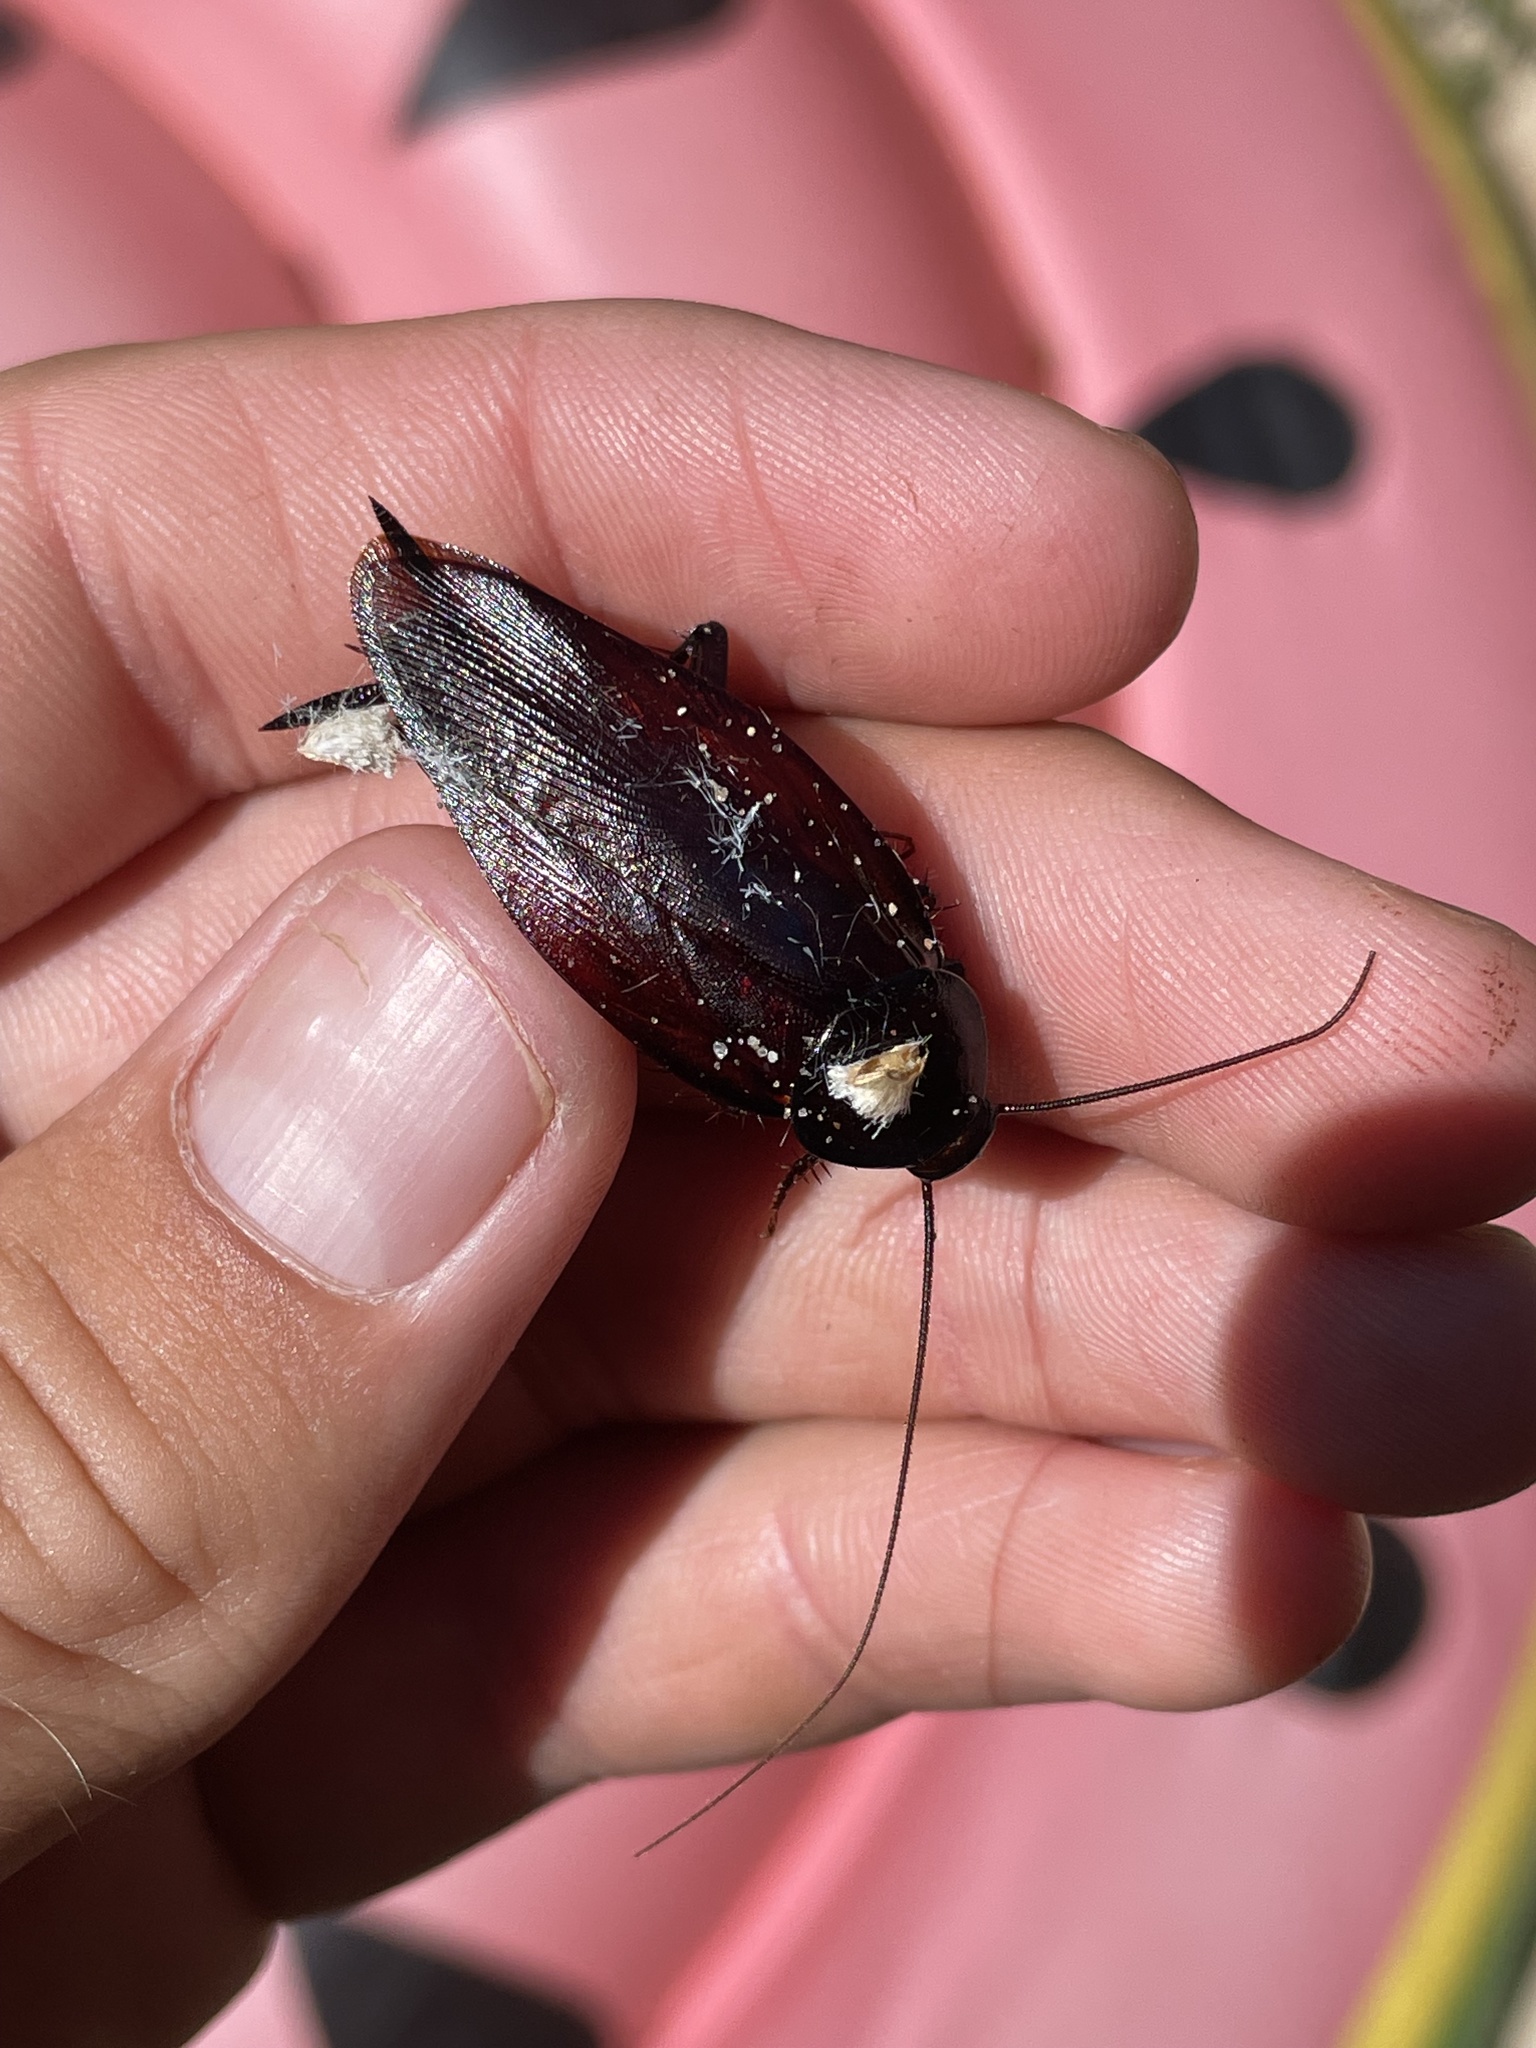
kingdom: Animalia
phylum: Arthropoda
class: Insecta
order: Blattodea
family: Blattidae
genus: Periplaneta
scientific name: Periplaneta fuliginosa
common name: Smokeybrown cockroad
